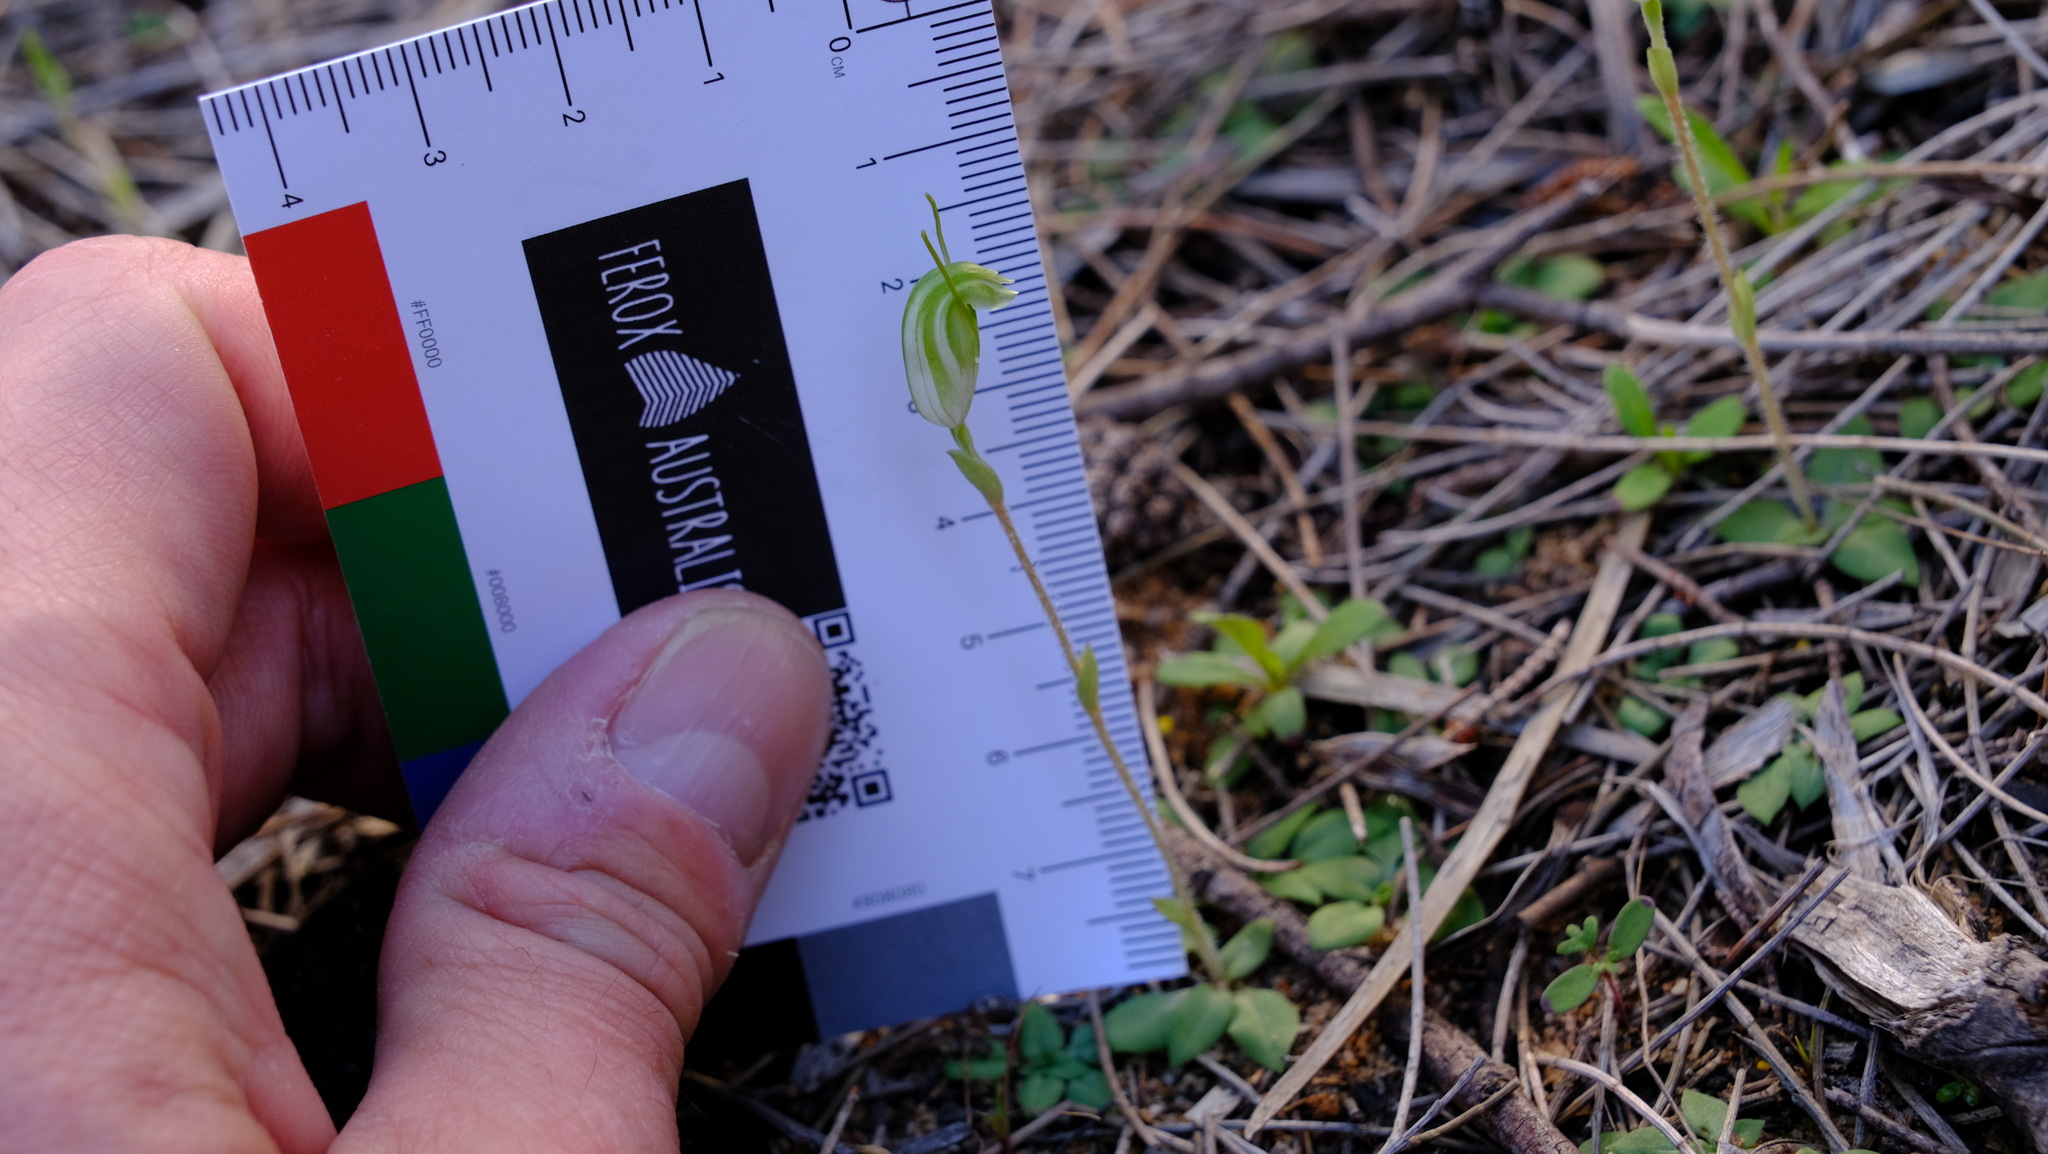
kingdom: Plantae
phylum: Tracheophyta
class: Liliopsida
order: Asparagales
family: Orchidaceae
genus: Pterostylis
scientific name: Pterostylis setulosa
